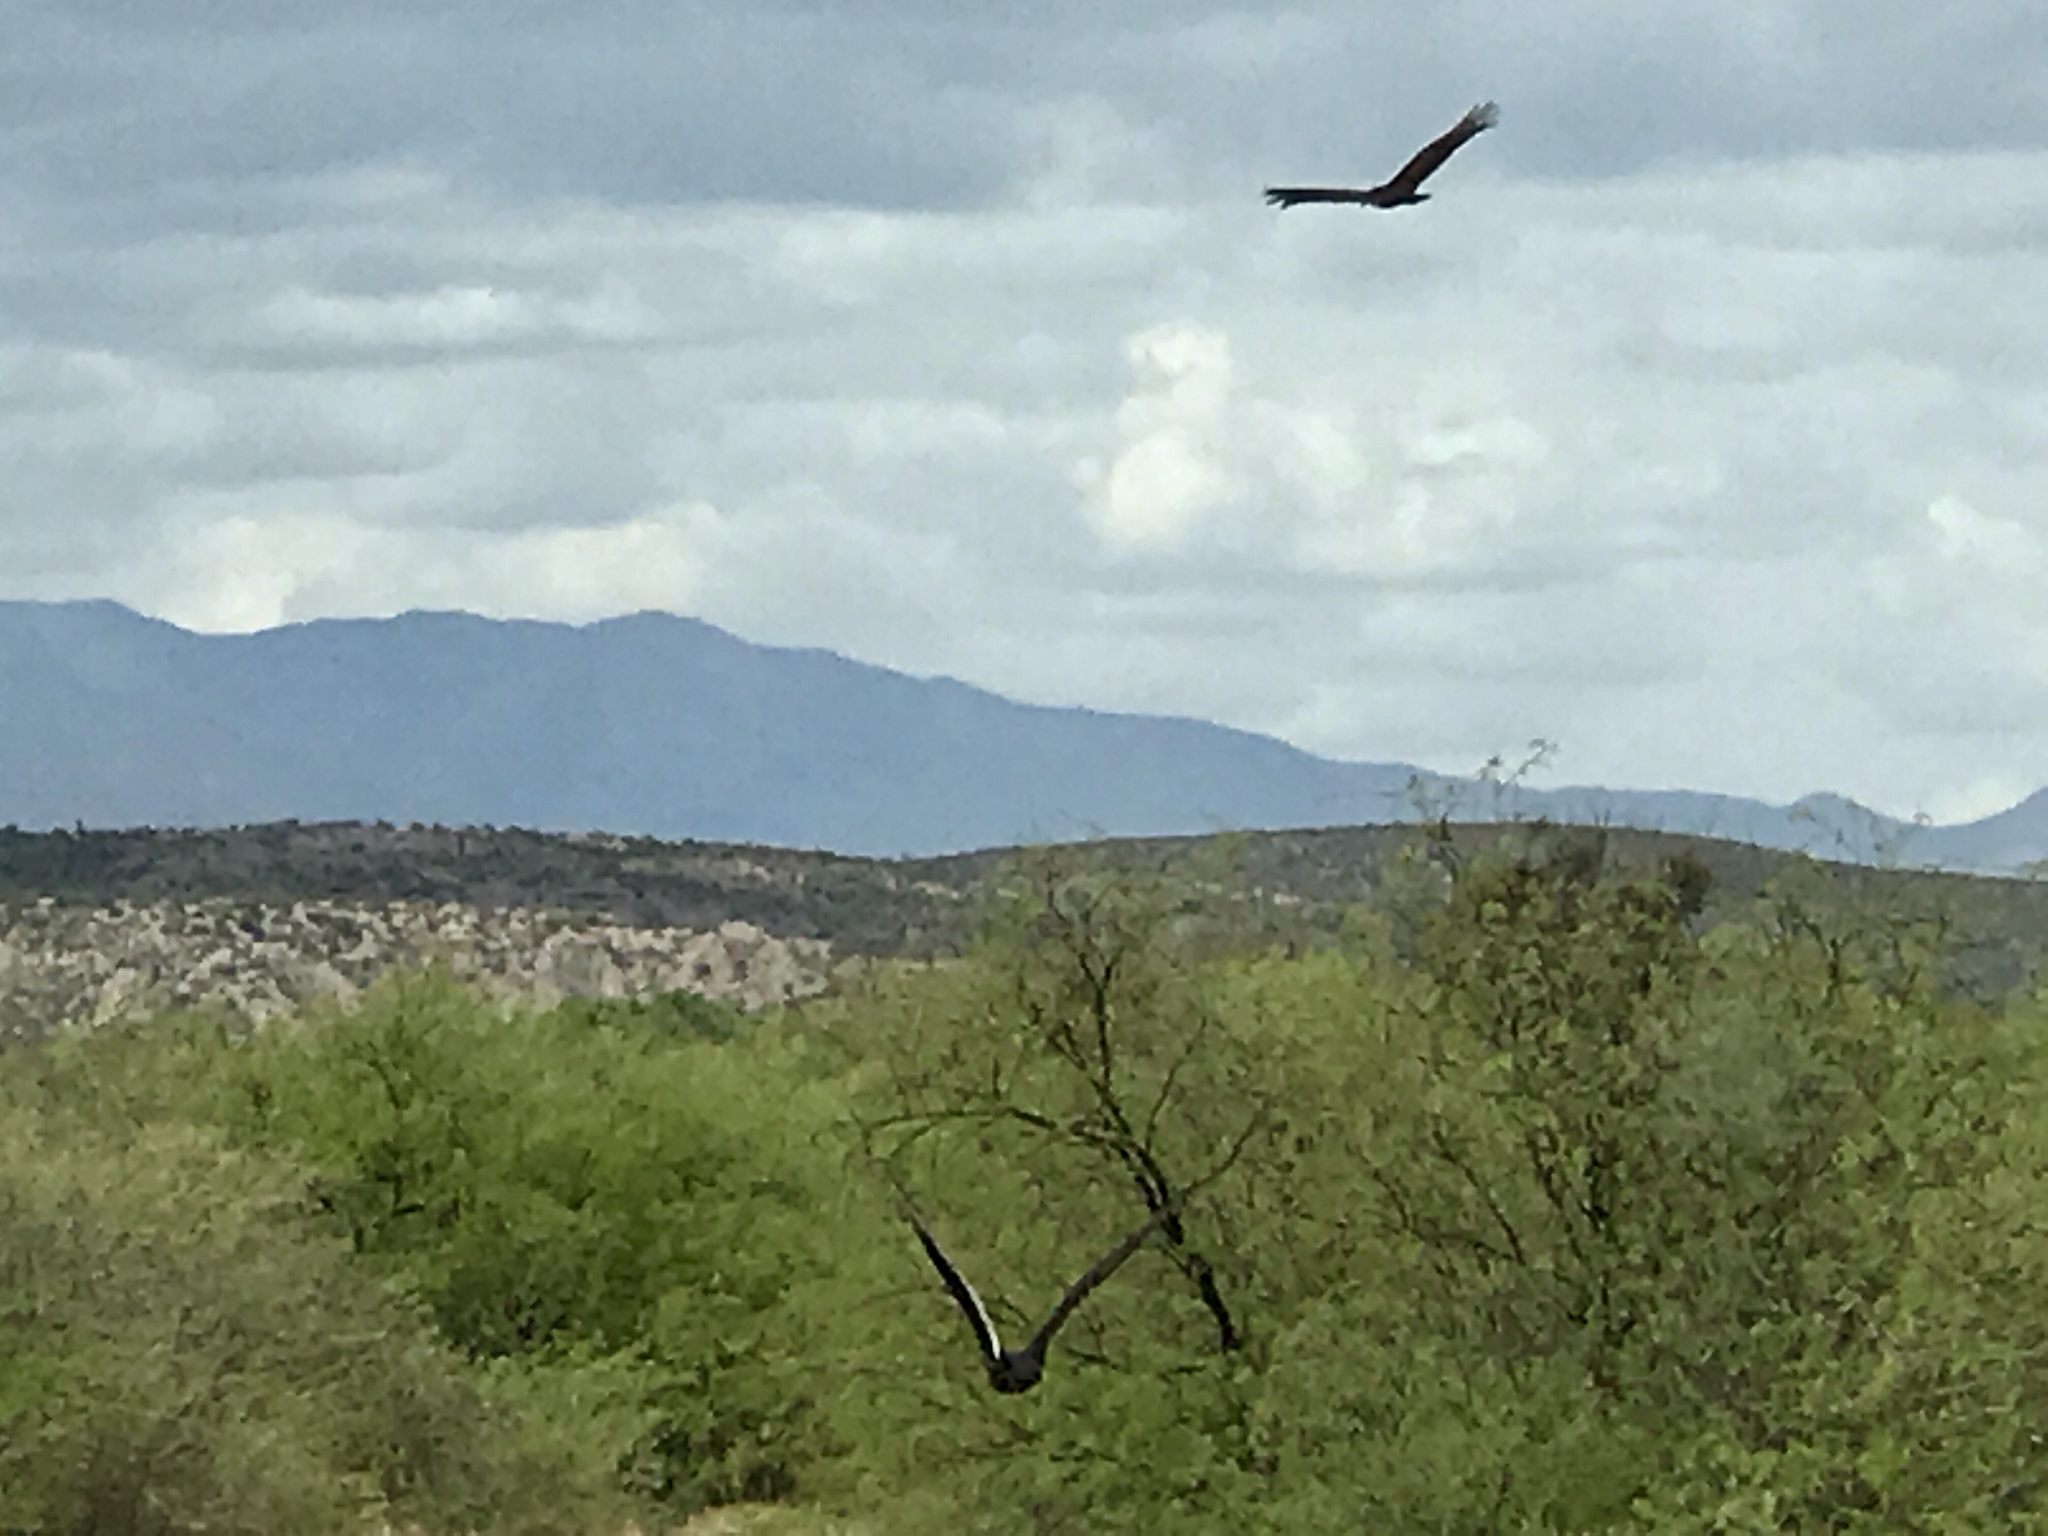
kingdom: Animalia
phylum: Chordata
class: Aves
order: Accipitriformes
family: Cathartidae
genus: Cathartes
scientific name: Cathartes aura
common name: Turkey vulture
